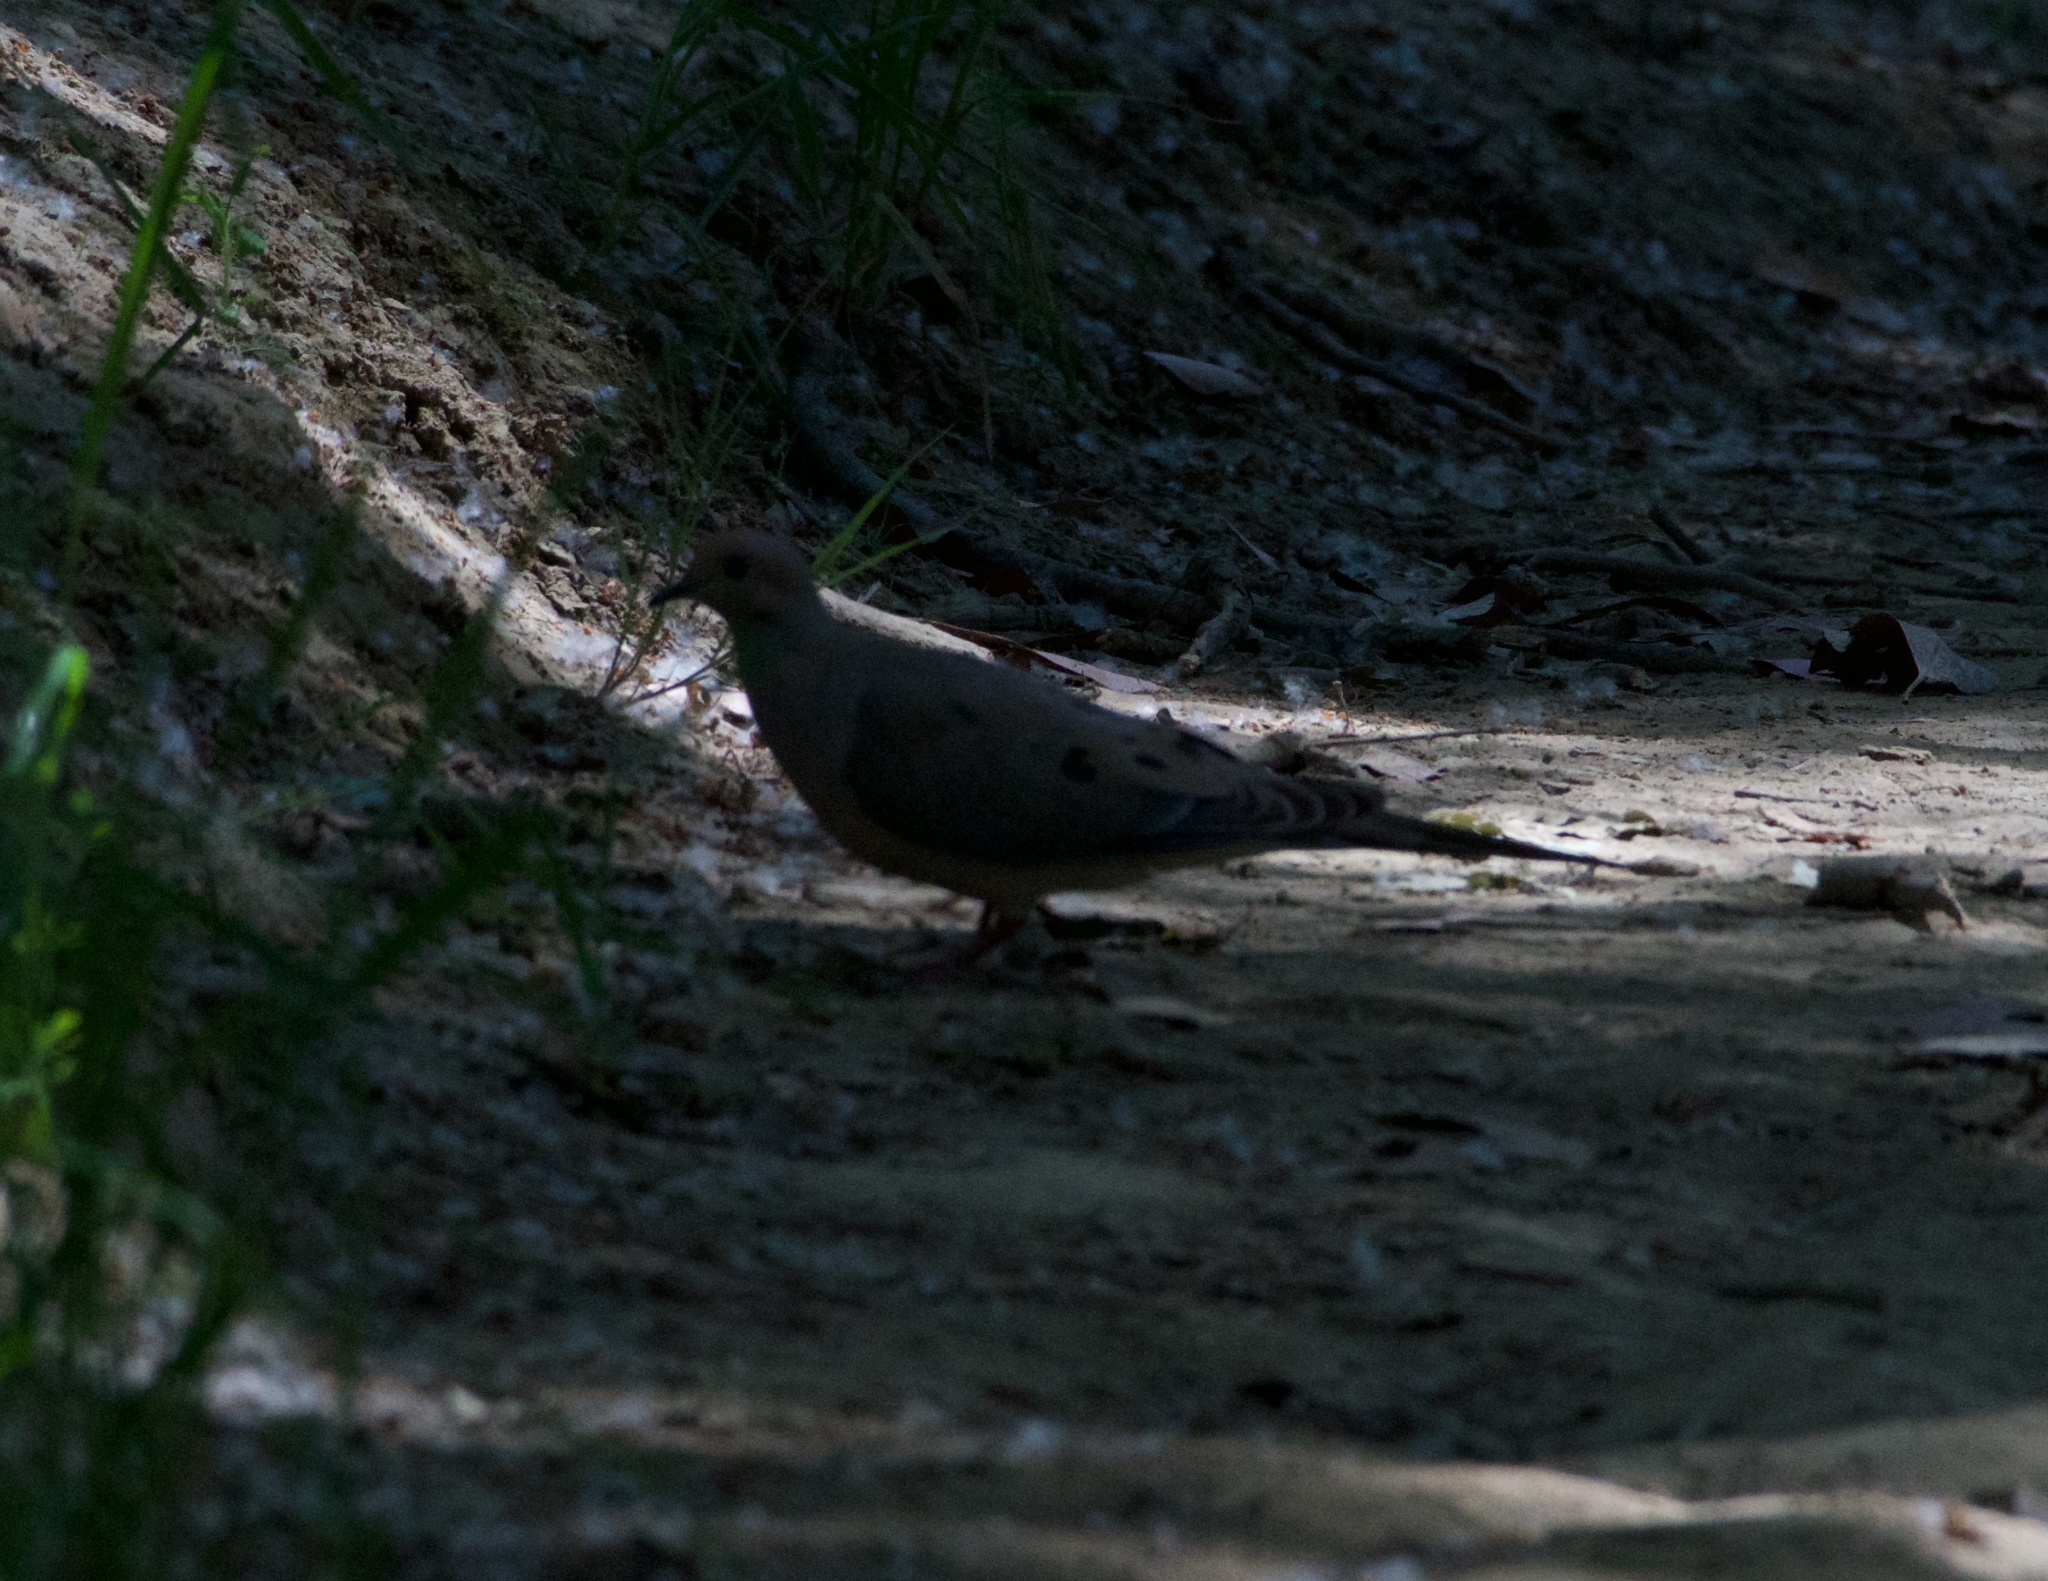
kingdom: Animalia
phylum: Chordata
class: Aves
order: Columbiformes
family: Columbidae
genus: Zenaida
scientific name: Zenaida macroura
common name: Mourning dove
